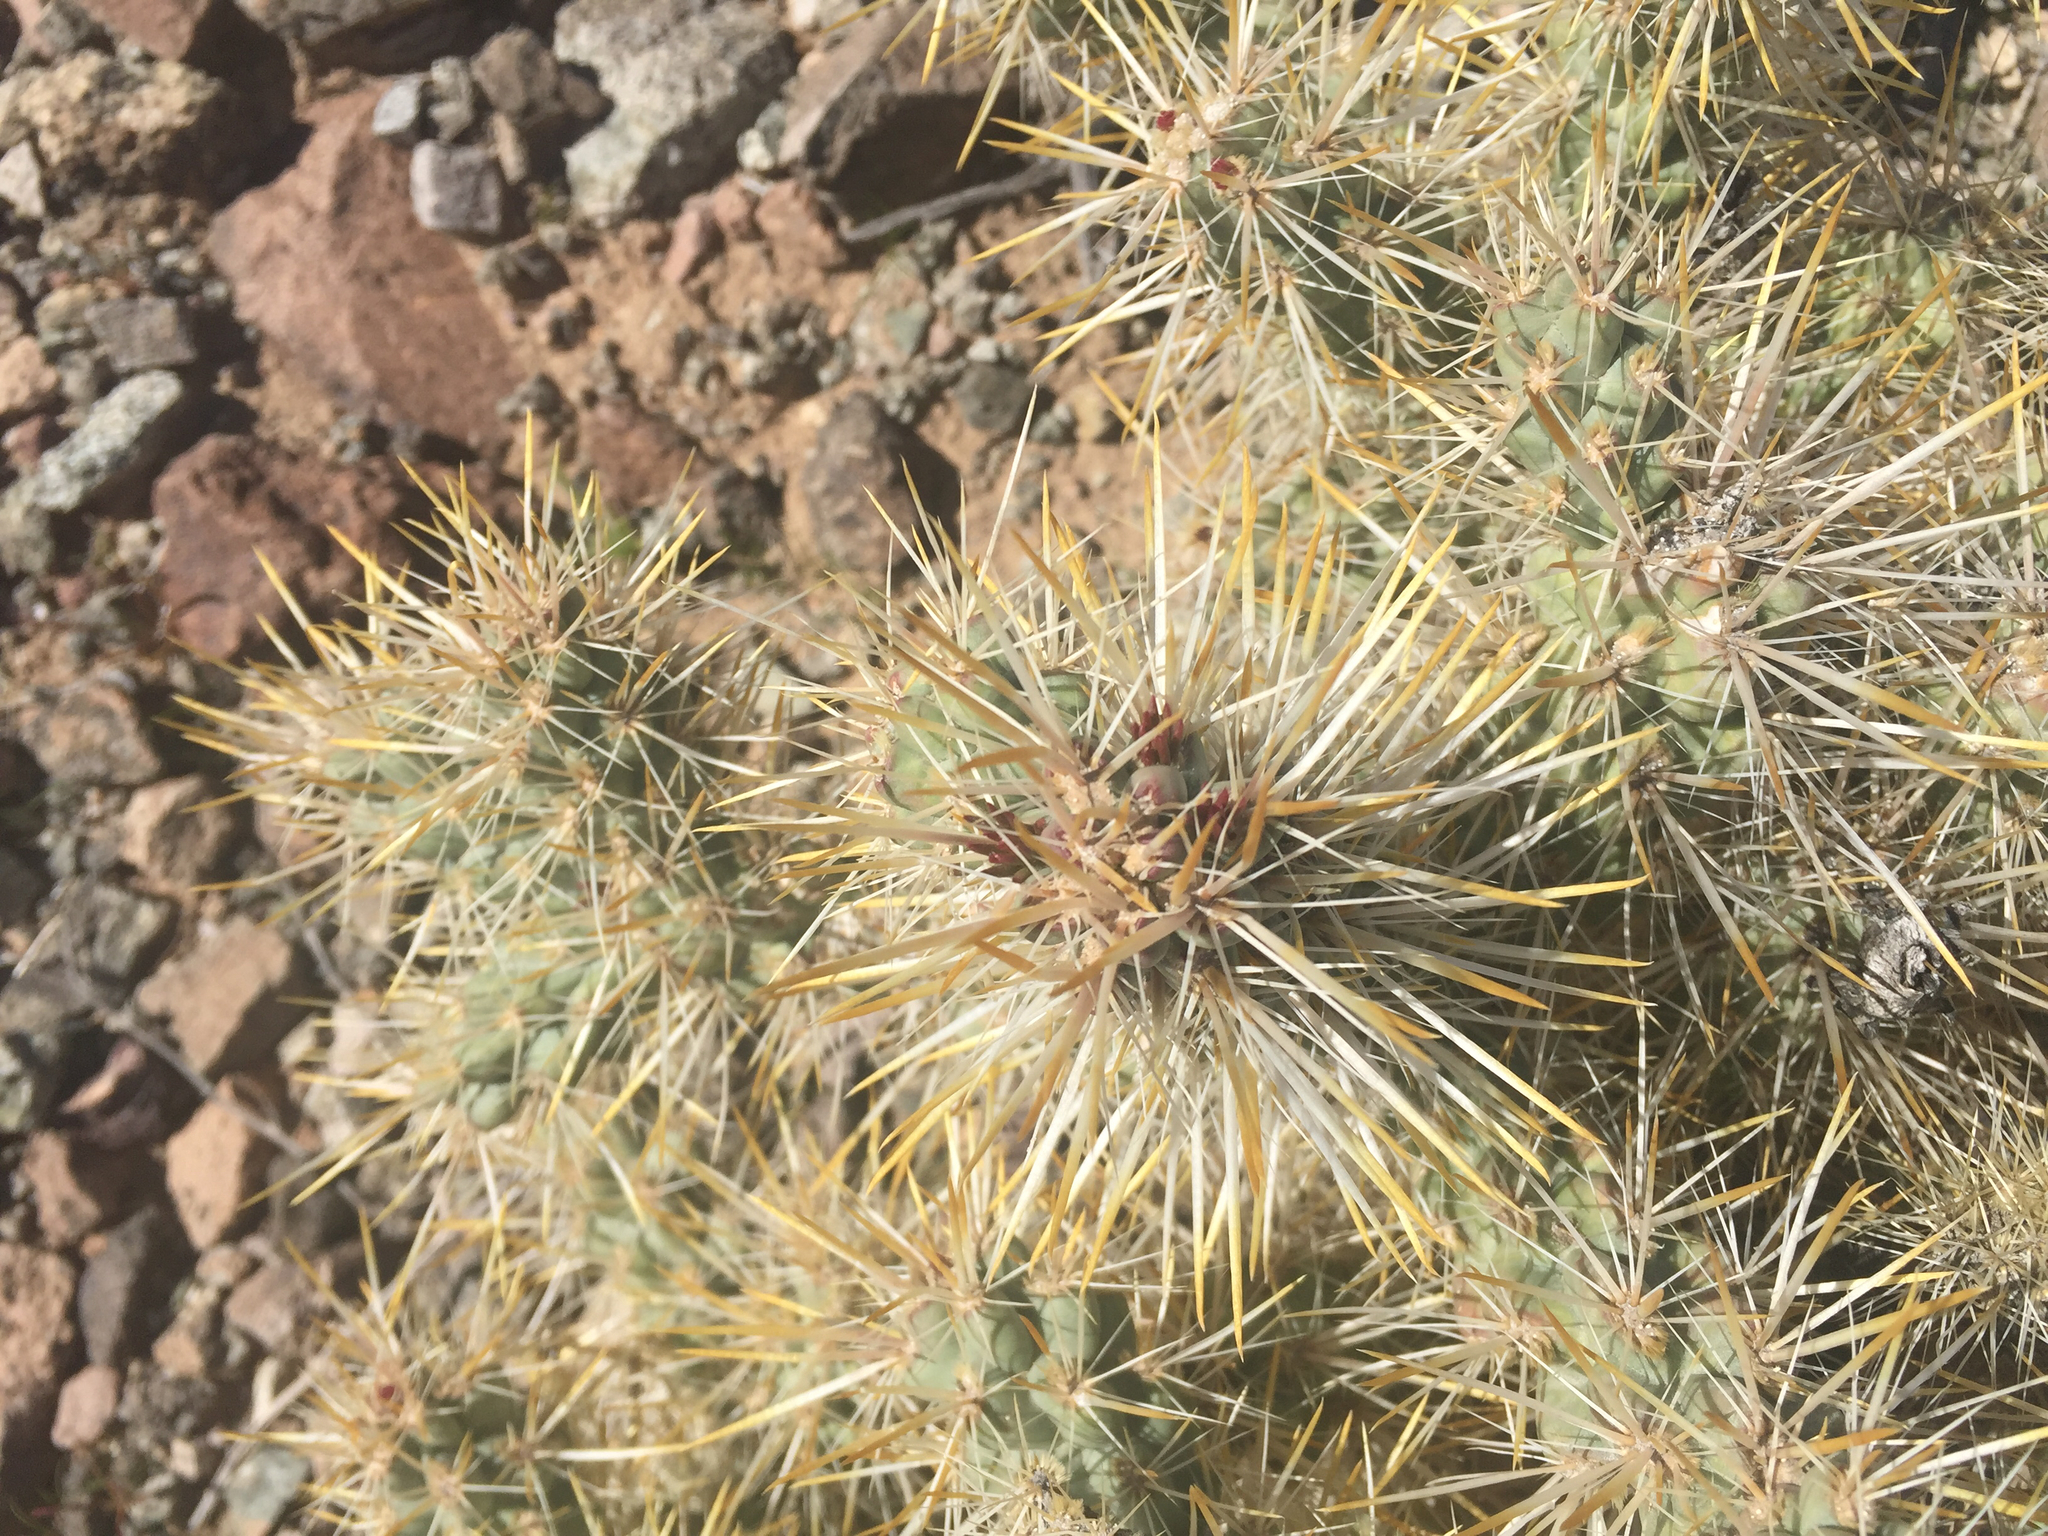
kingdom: Plantae
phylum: Tracheophyta
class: Magnoliopsida
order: Caryophyllales
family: Cactaceae
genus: Cylindropuntia
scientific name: Cylindropuntia echinocarpa
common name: Ground cholla
